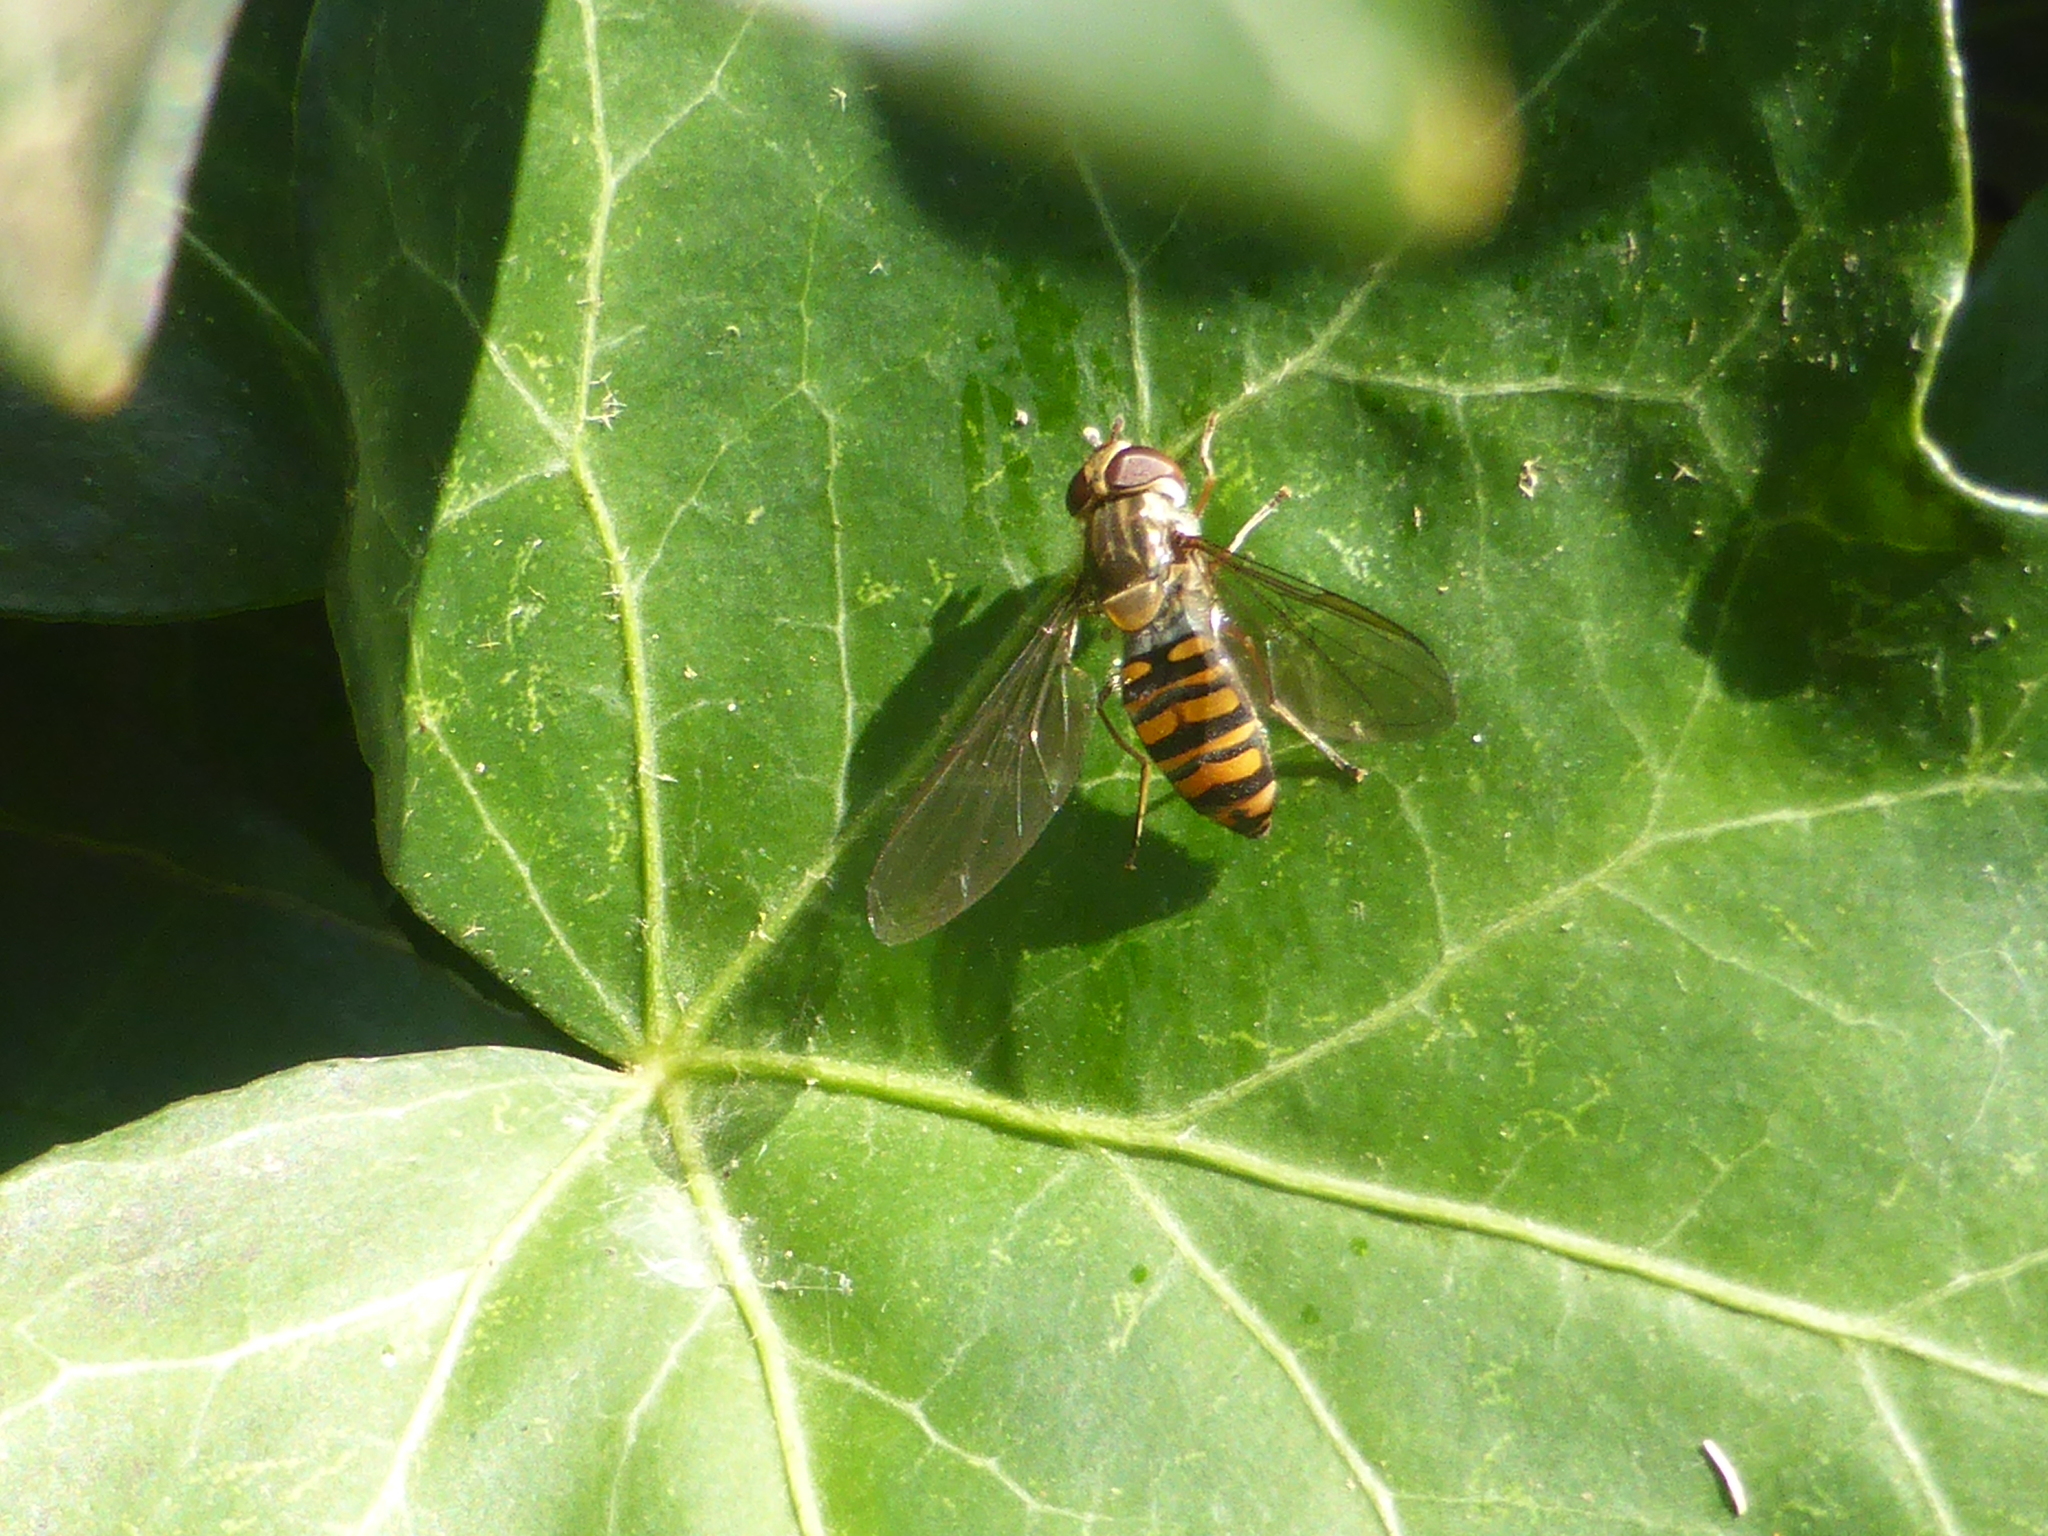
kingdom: Animalia
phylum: Arthropoda
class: Insecta
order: Diptera
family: Syrphidae
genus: Episyrphus
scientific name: Episyrphus balteatus
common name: Marmalade hoverfly
